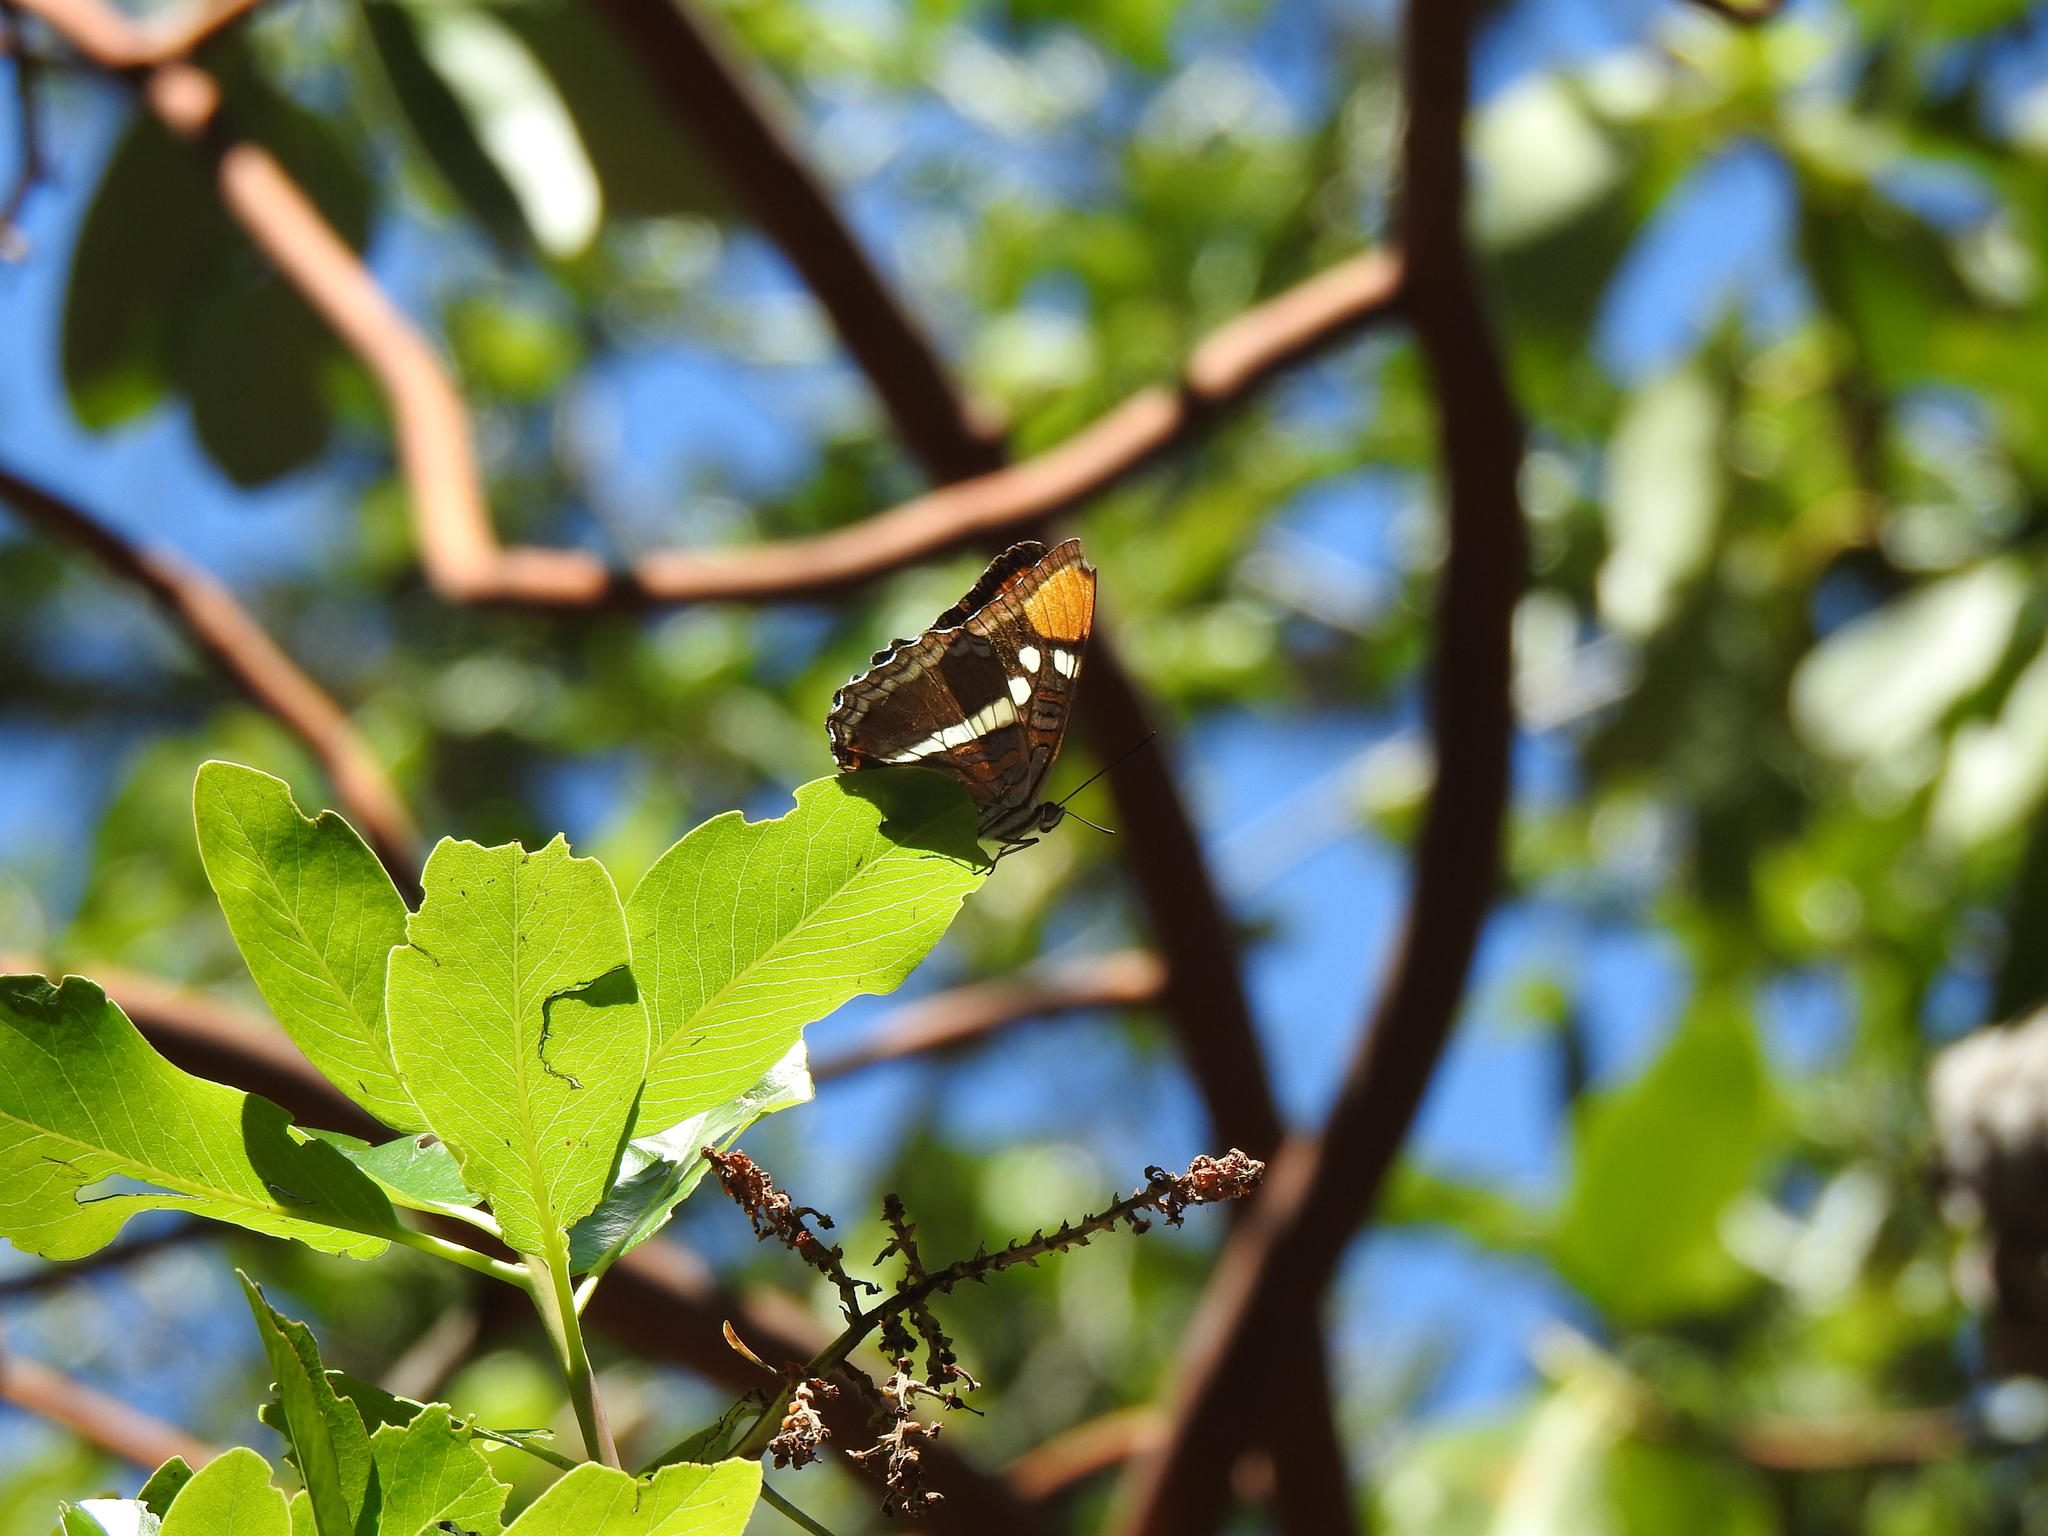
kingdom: Animalia
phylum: Arthropoda
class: Insecta
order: Lepidoptera
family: Nymphalidae
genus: Limenitis
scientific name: Limenitis bredowii
